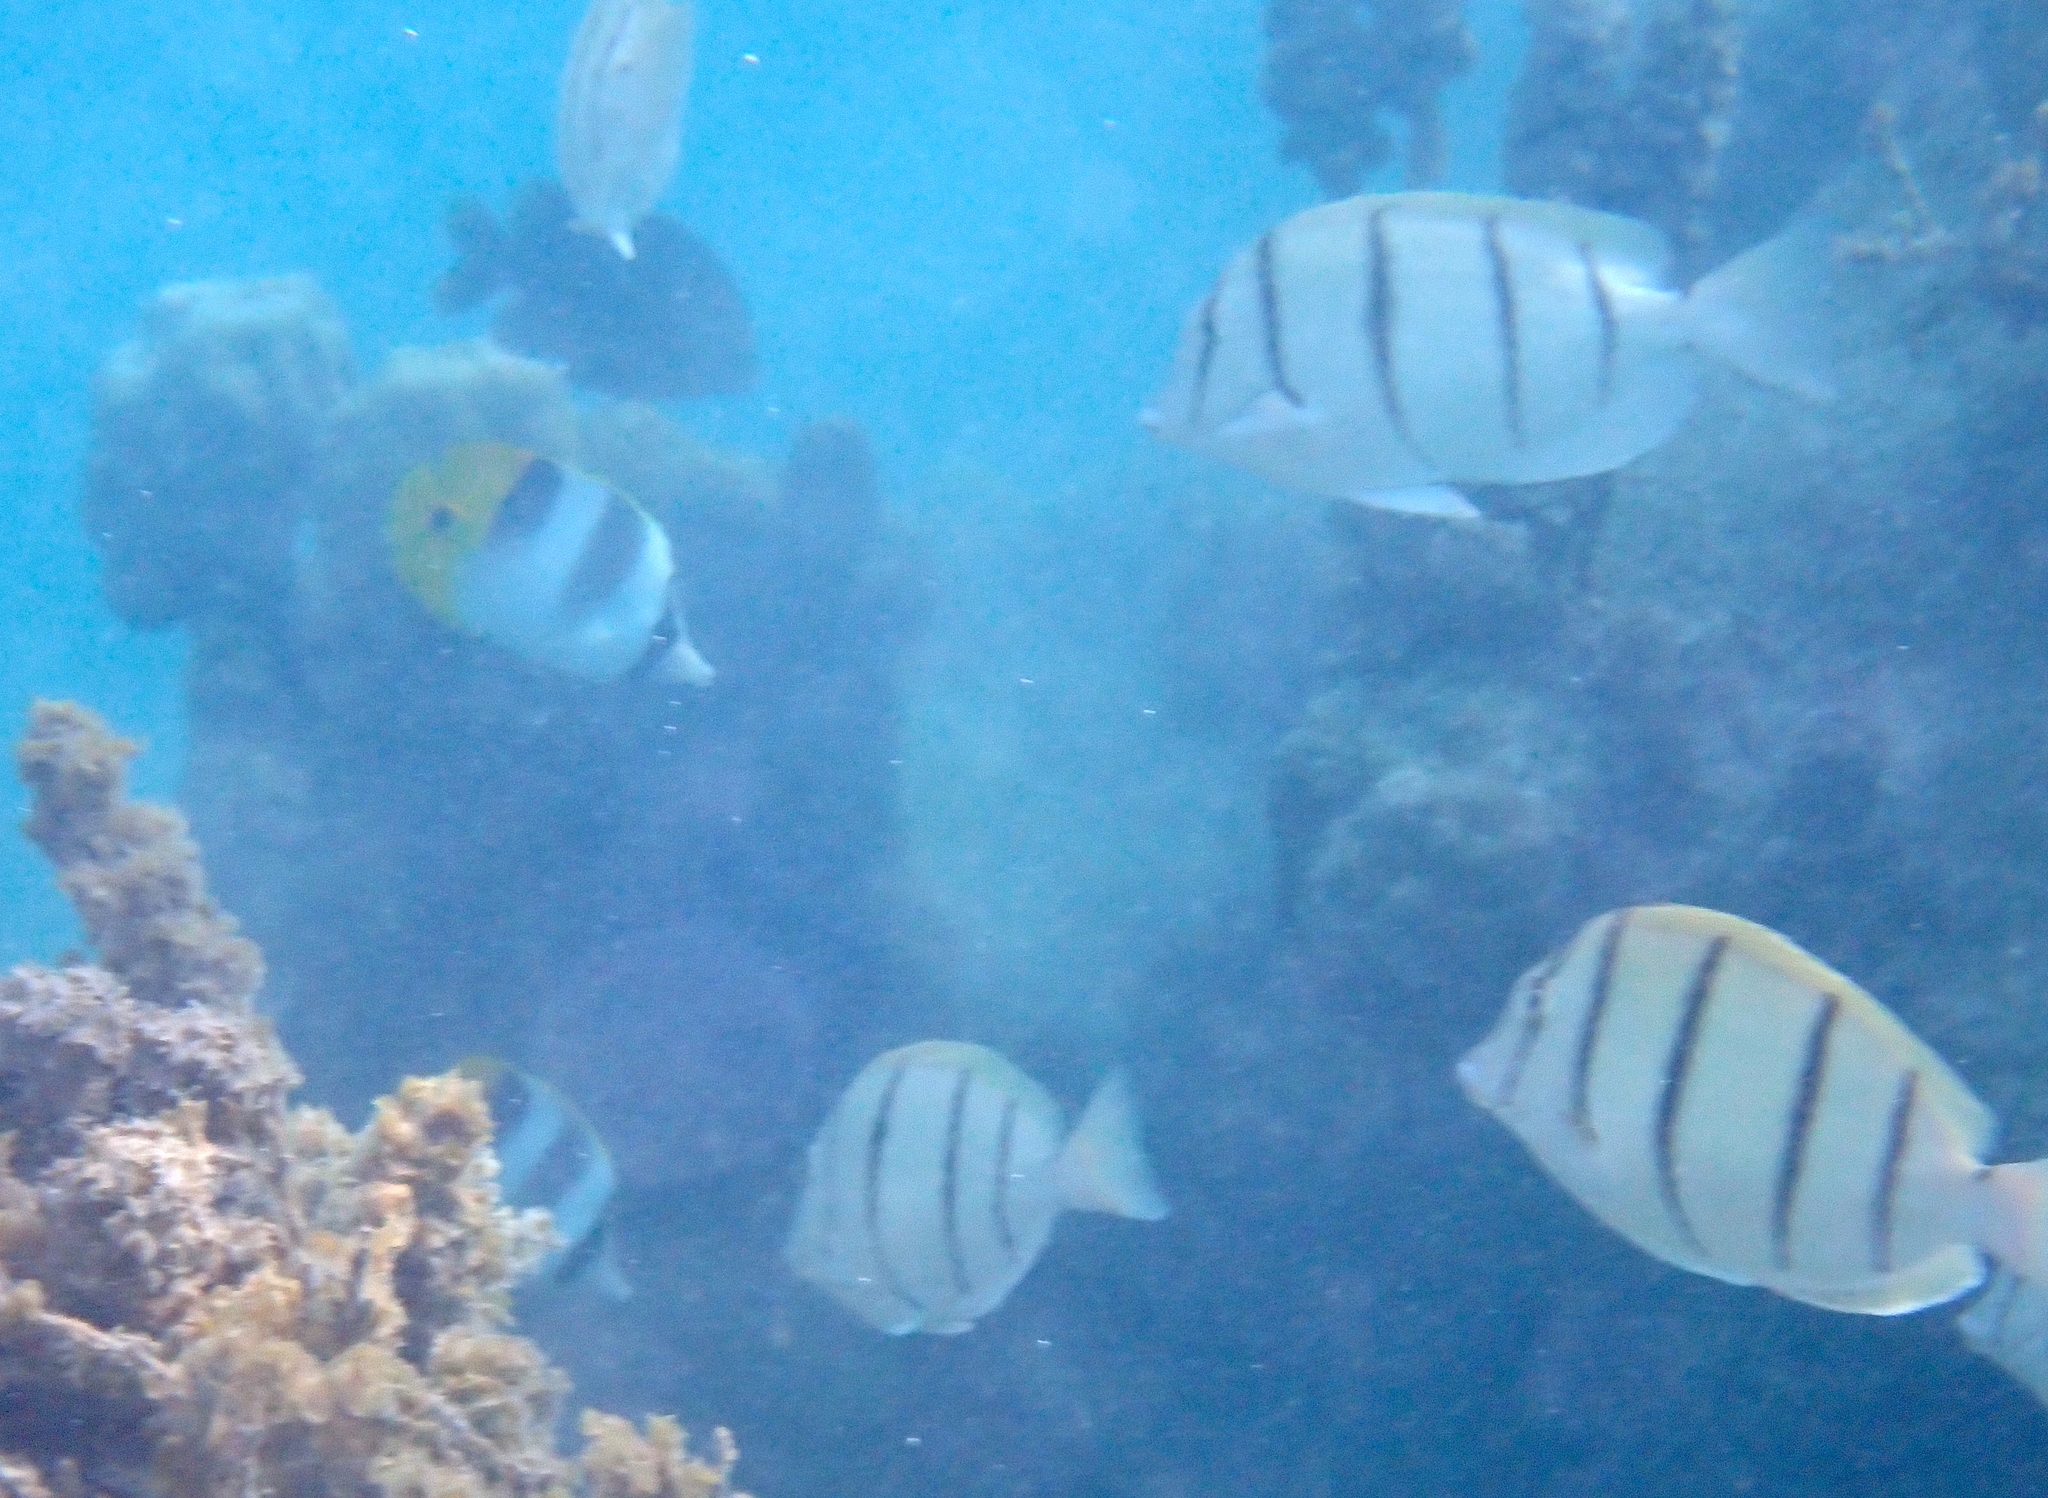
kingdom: Animalia
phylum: Chordata
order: Perciformes
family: Acanthuridae
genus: Acanthurus
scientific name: Acanthurus triostegus
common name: Convict surgeonfish
